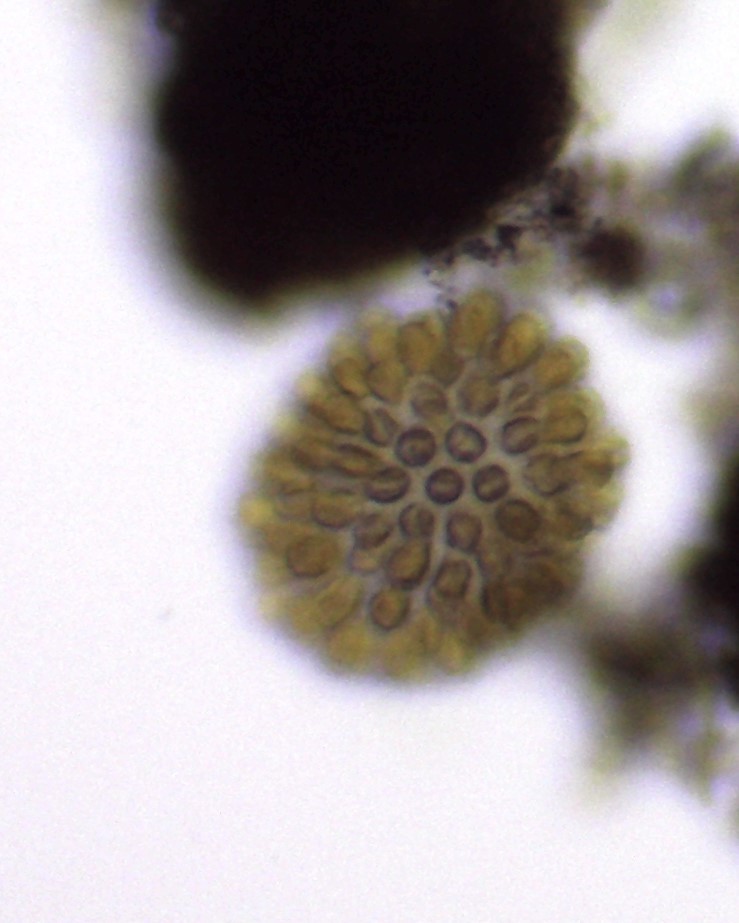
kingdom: Chromista
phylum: Ochrophyta
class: Synurophyceae
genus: Synura
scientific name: Synura
